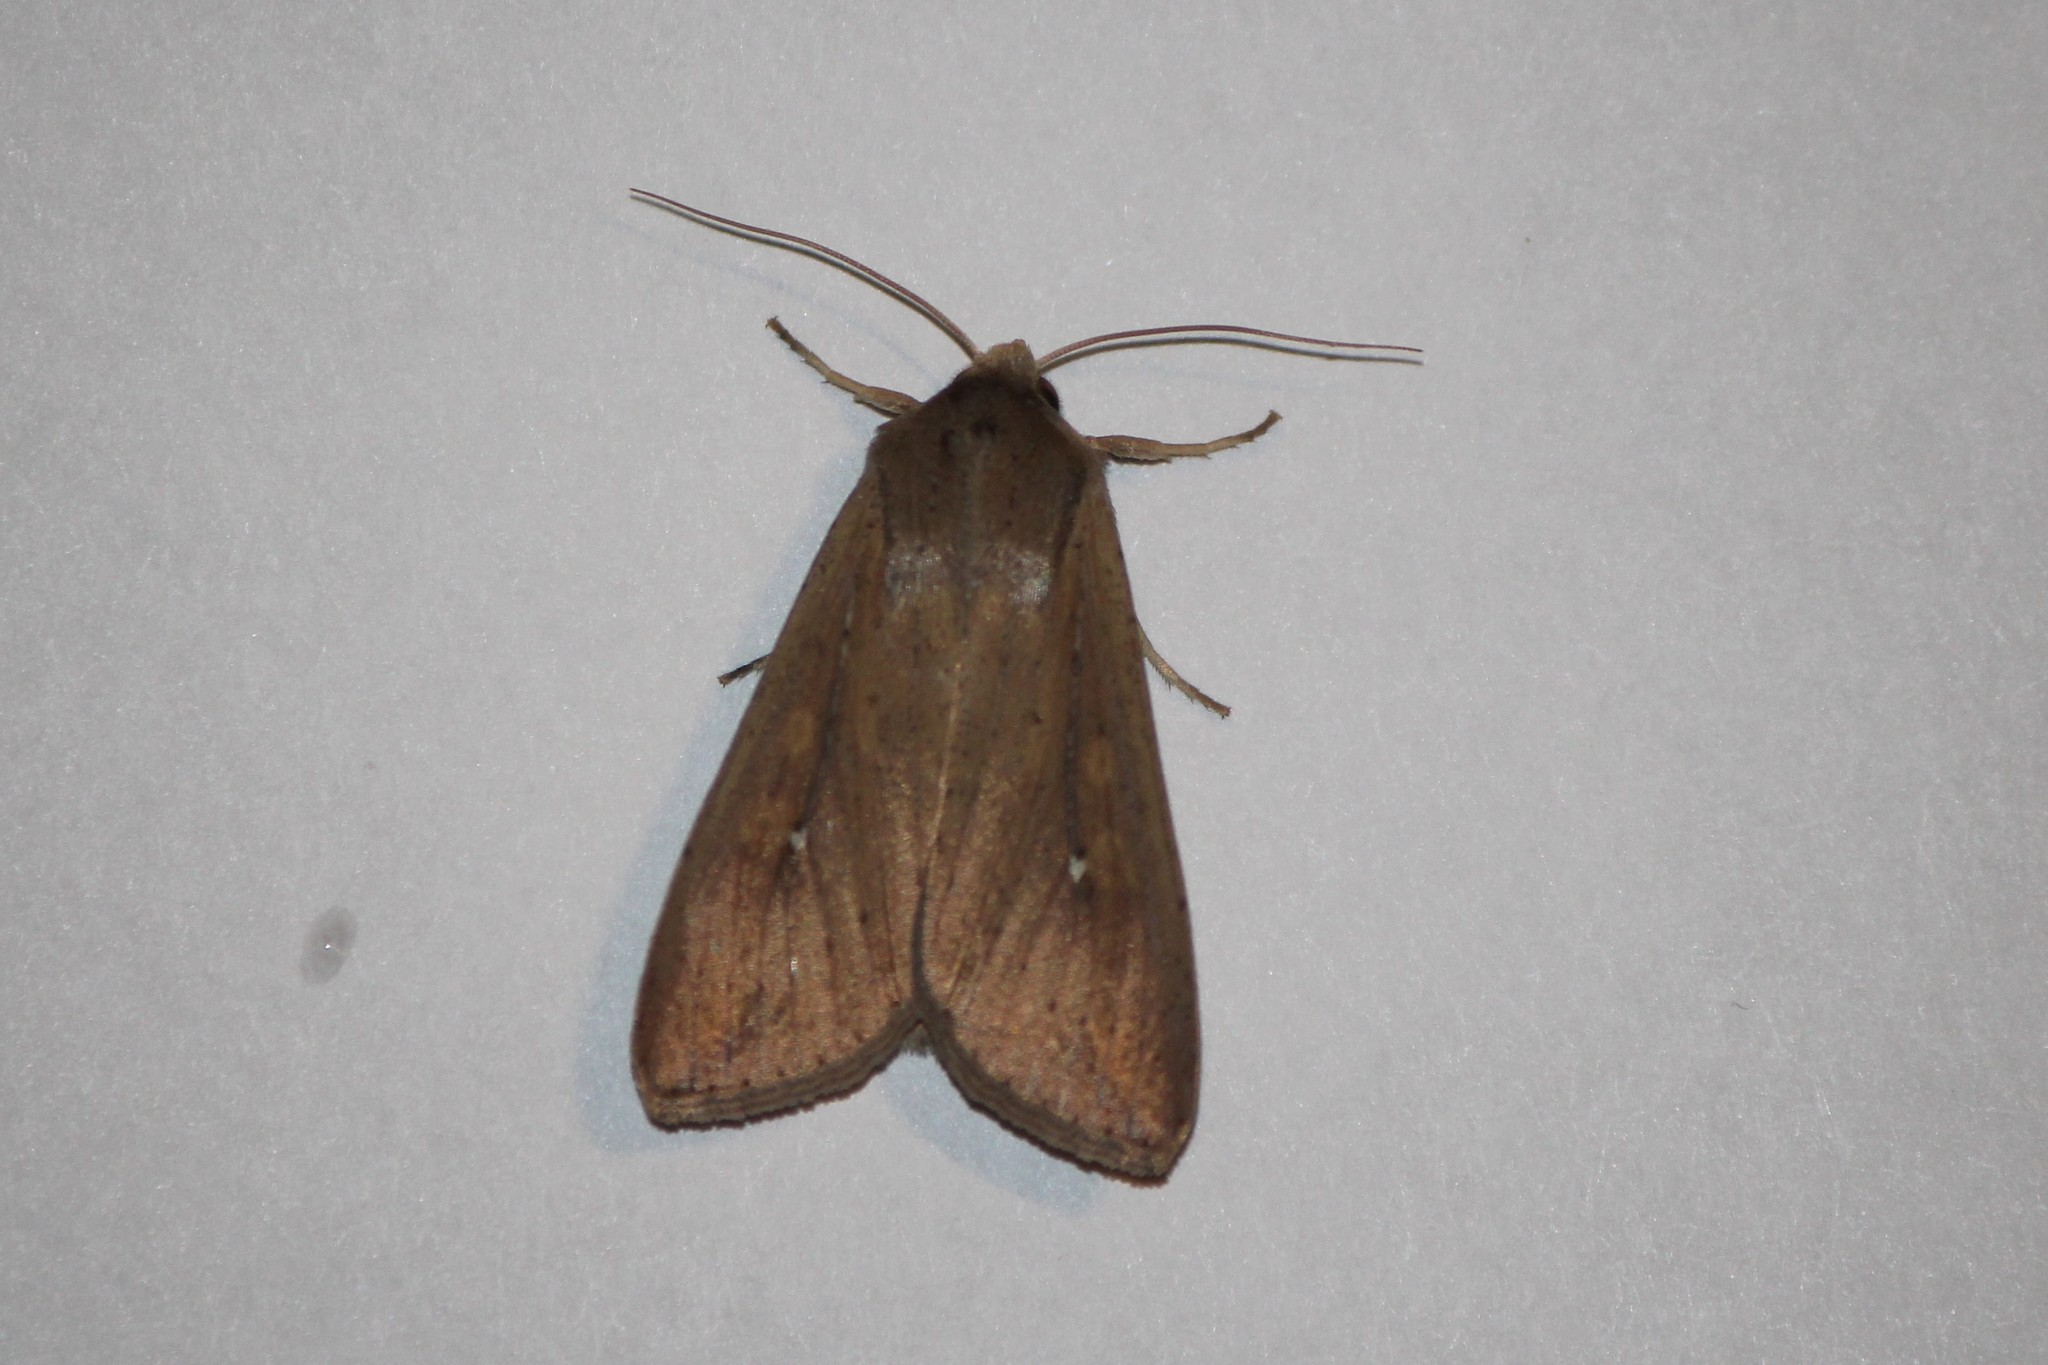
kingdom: Animalia
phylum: Arthropoda
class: Insecta
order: Lepidoptera
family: Noctuidae
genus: Mythimna
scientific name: Mythimna unipuncta
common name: White-speck
